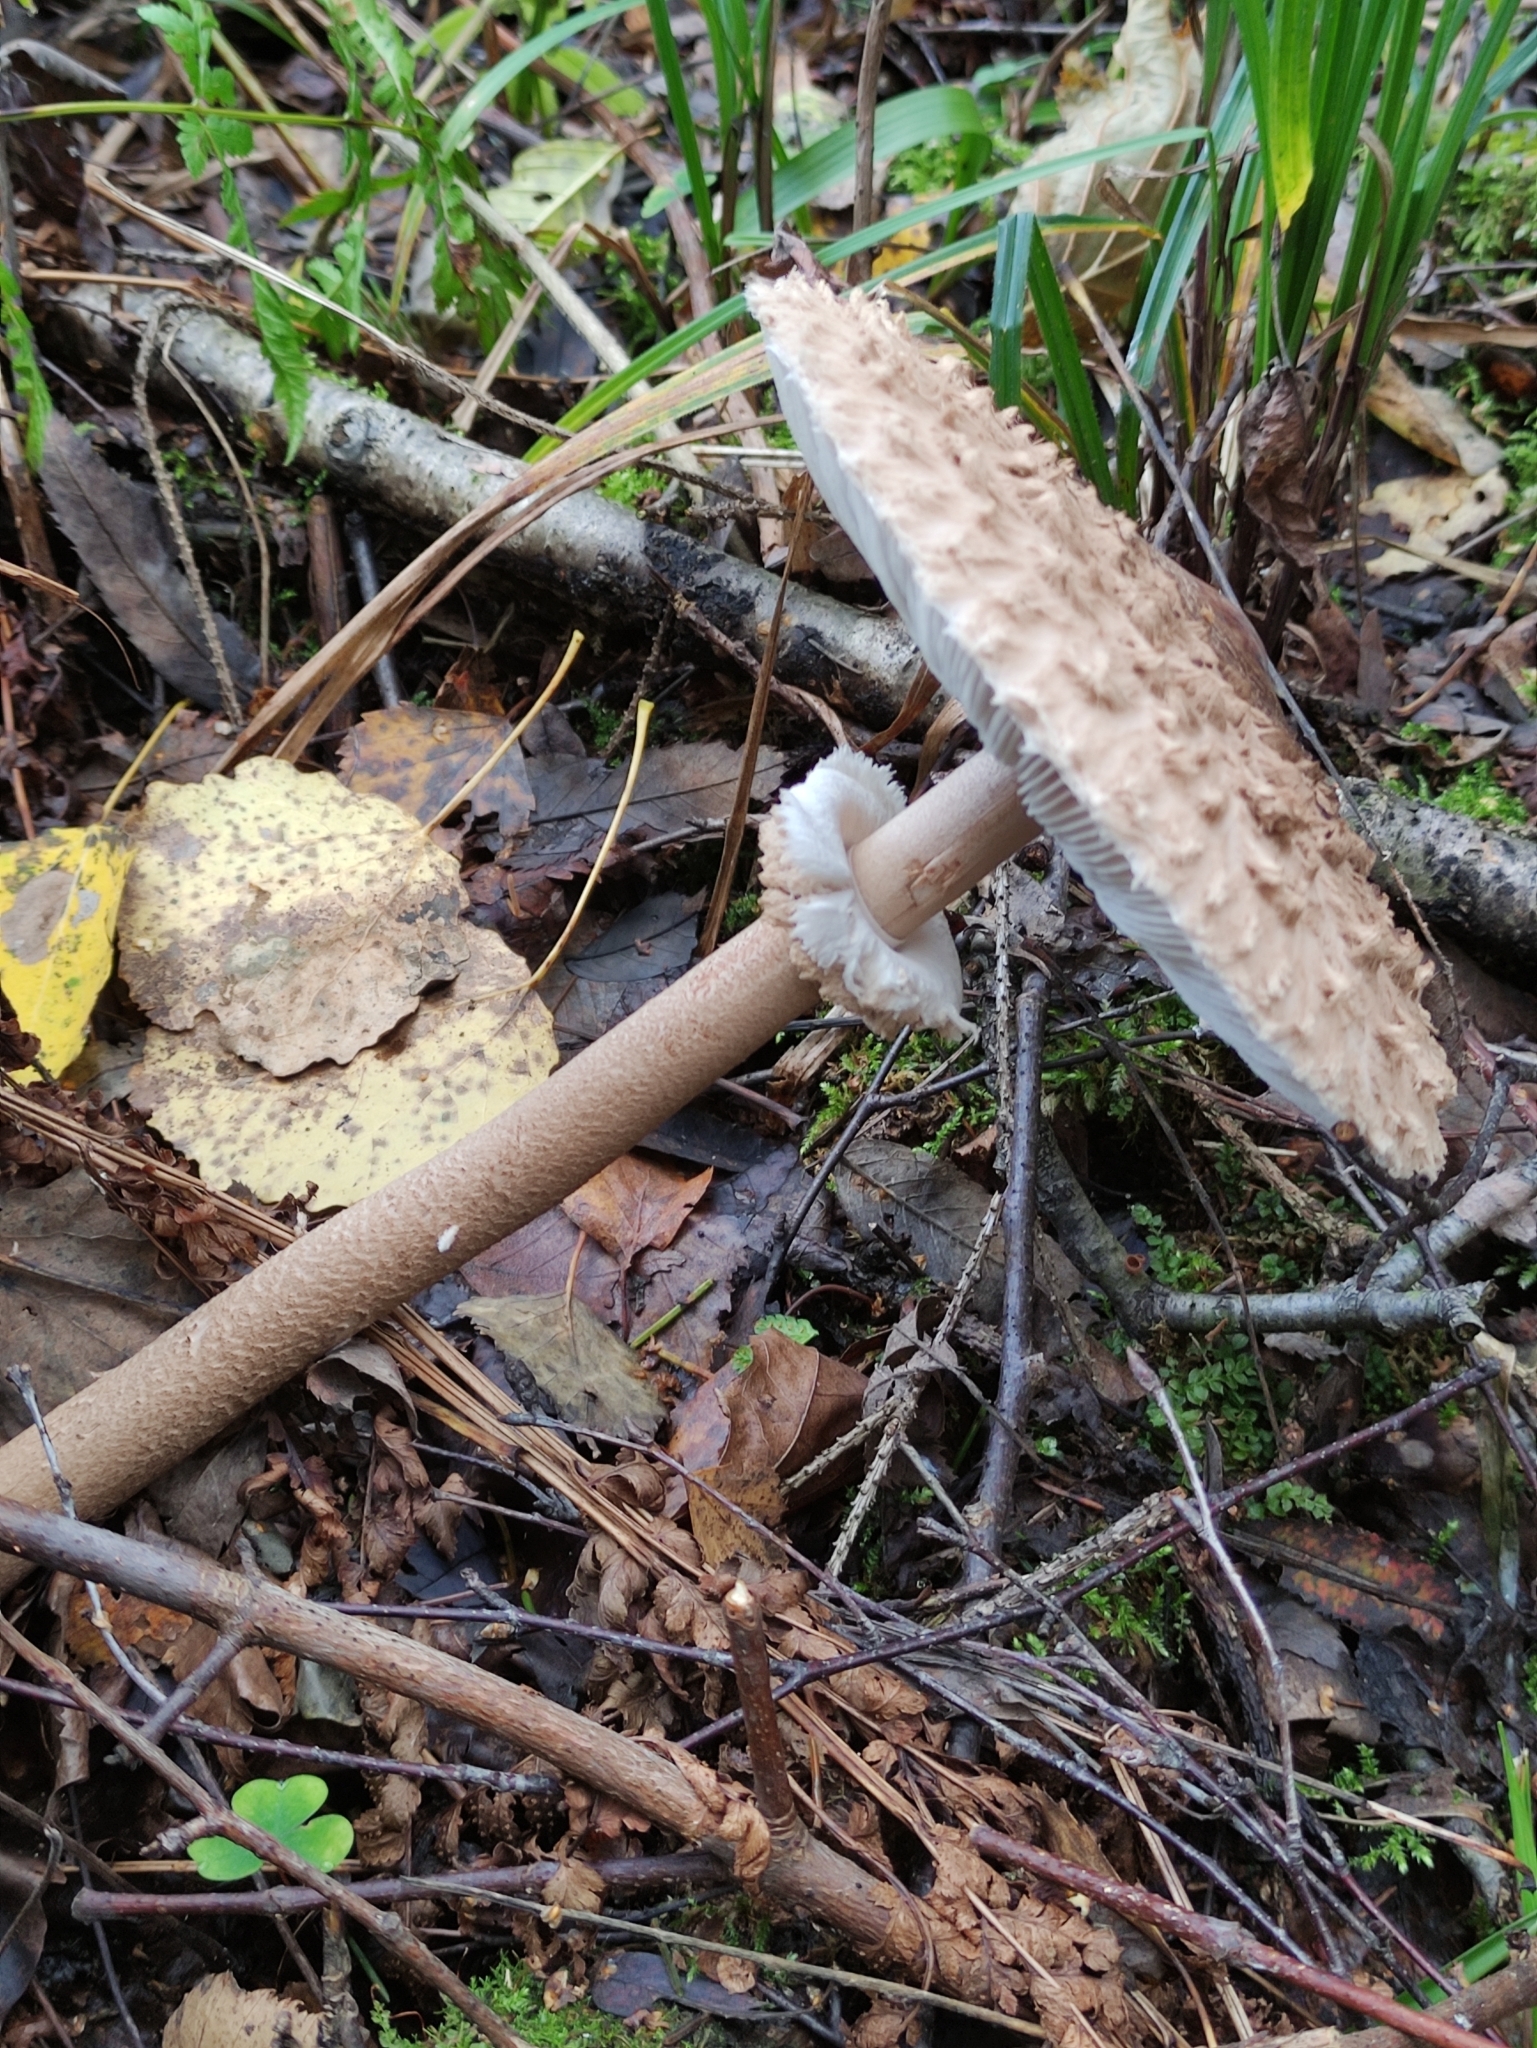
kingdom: Fungi
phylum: Basidiomycota
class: Agaricomycetes
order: Agaricales
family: Agaricaceae
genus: Macrolepiota
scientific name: Macrolepiota procera
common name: Parasol
